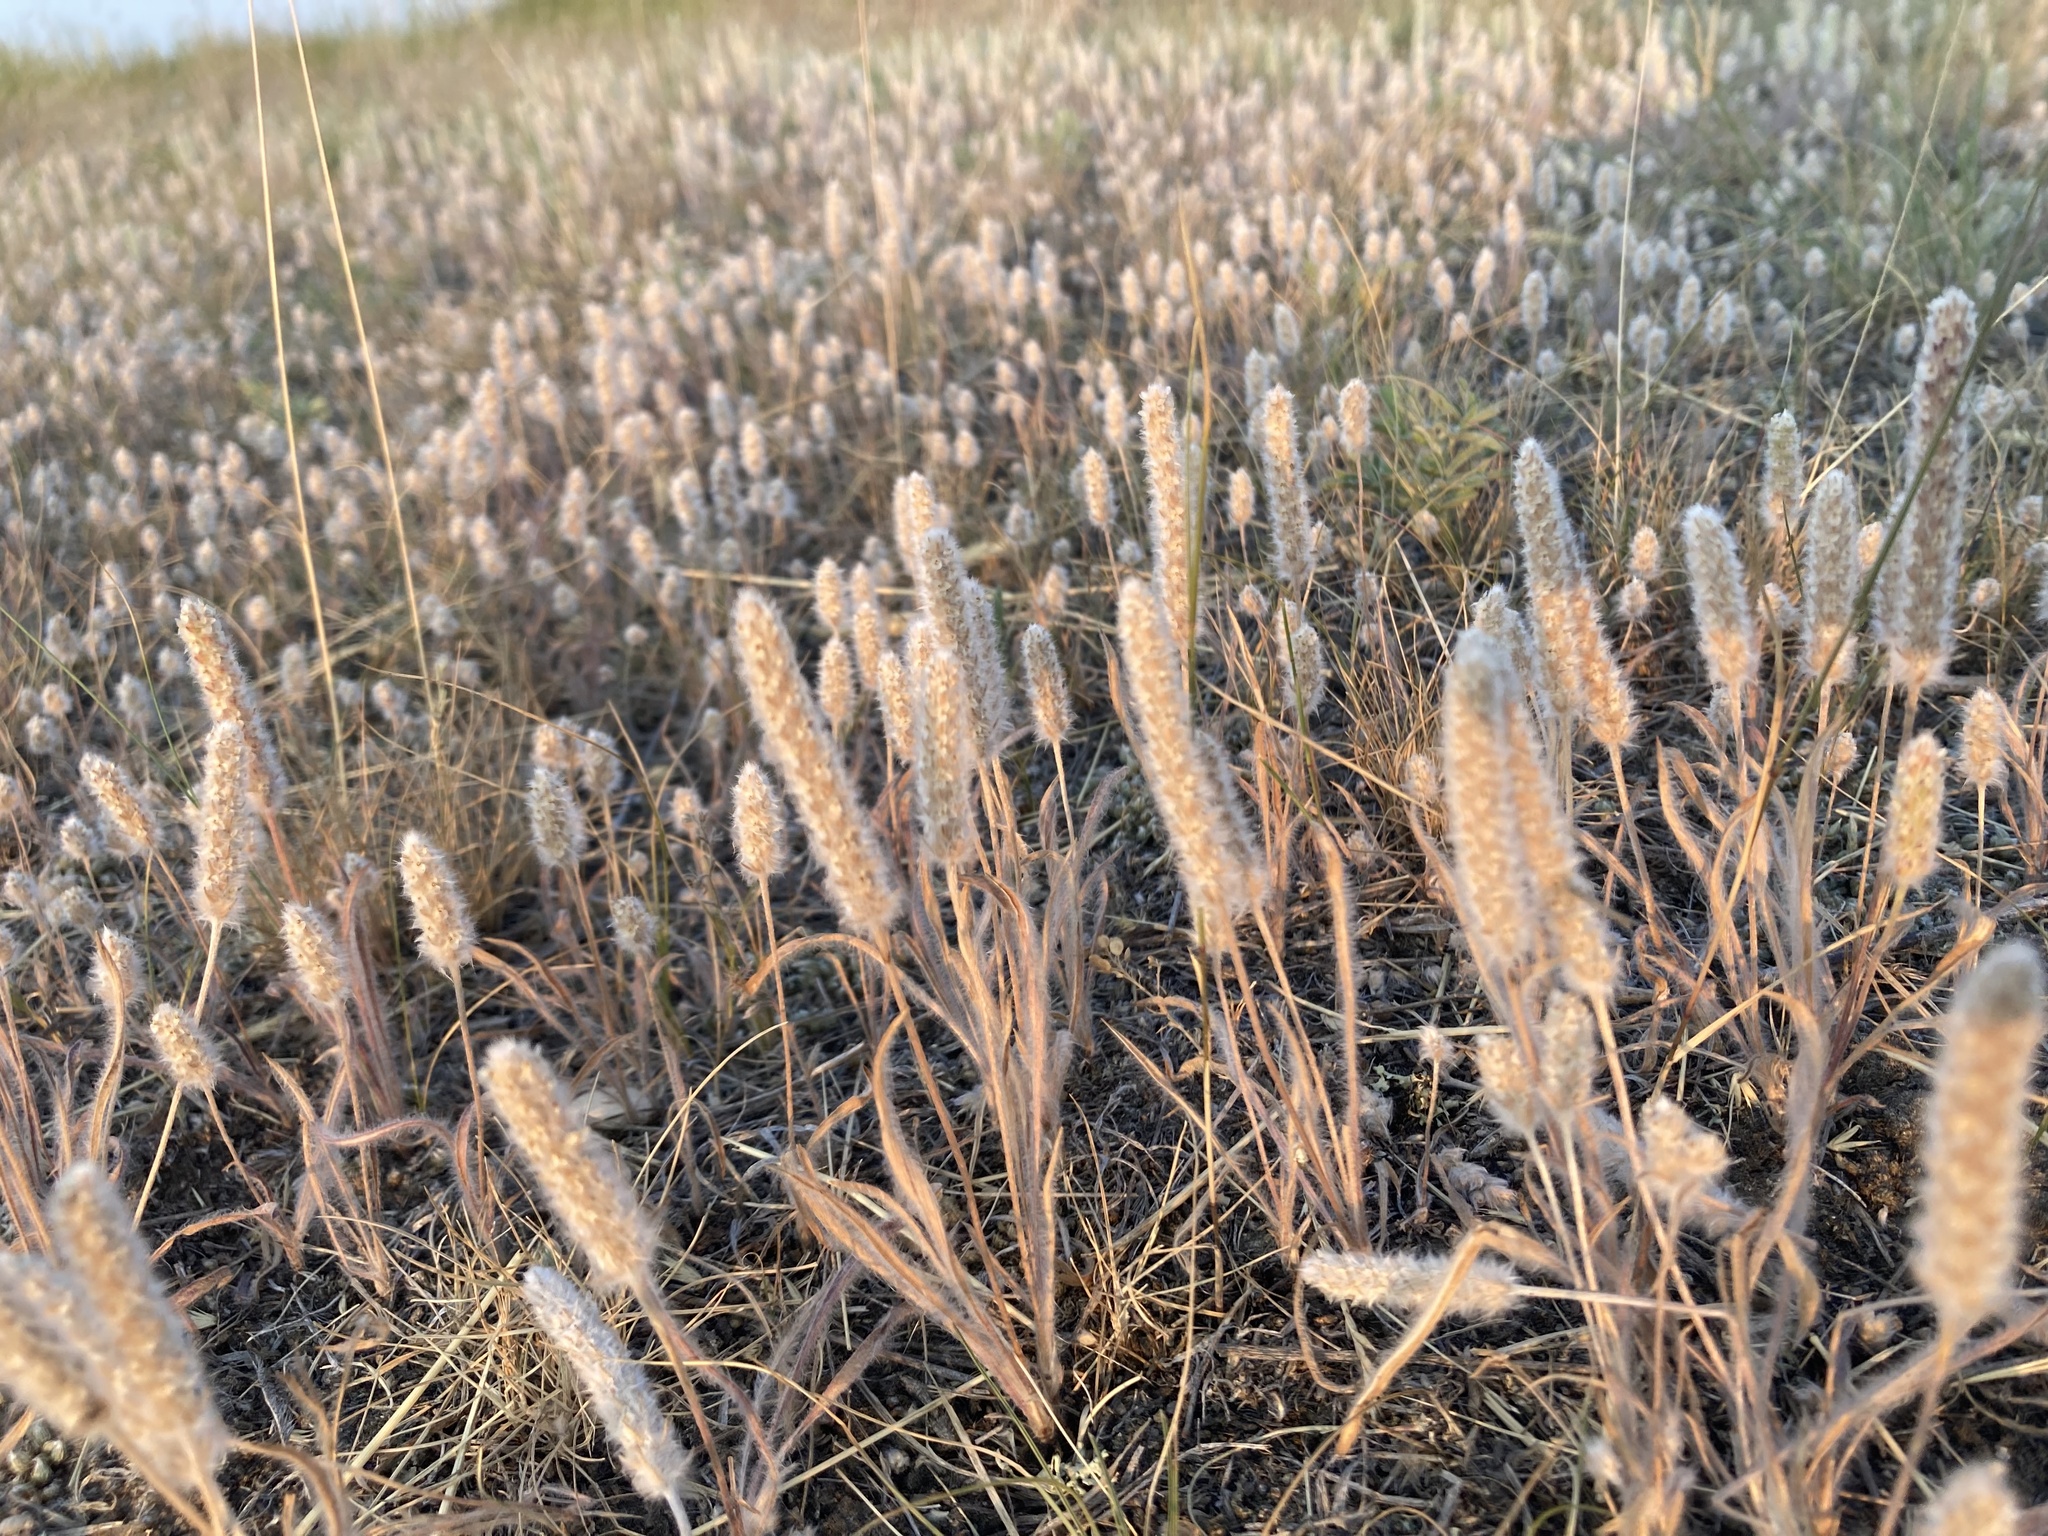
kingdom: Plantae
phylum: Tracheophyta
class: Magnoliopsida
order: Lamiales
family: Plantaginaceae
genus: Plantago
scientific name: Plantago patagonica
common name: Patagonia indian-wheat
